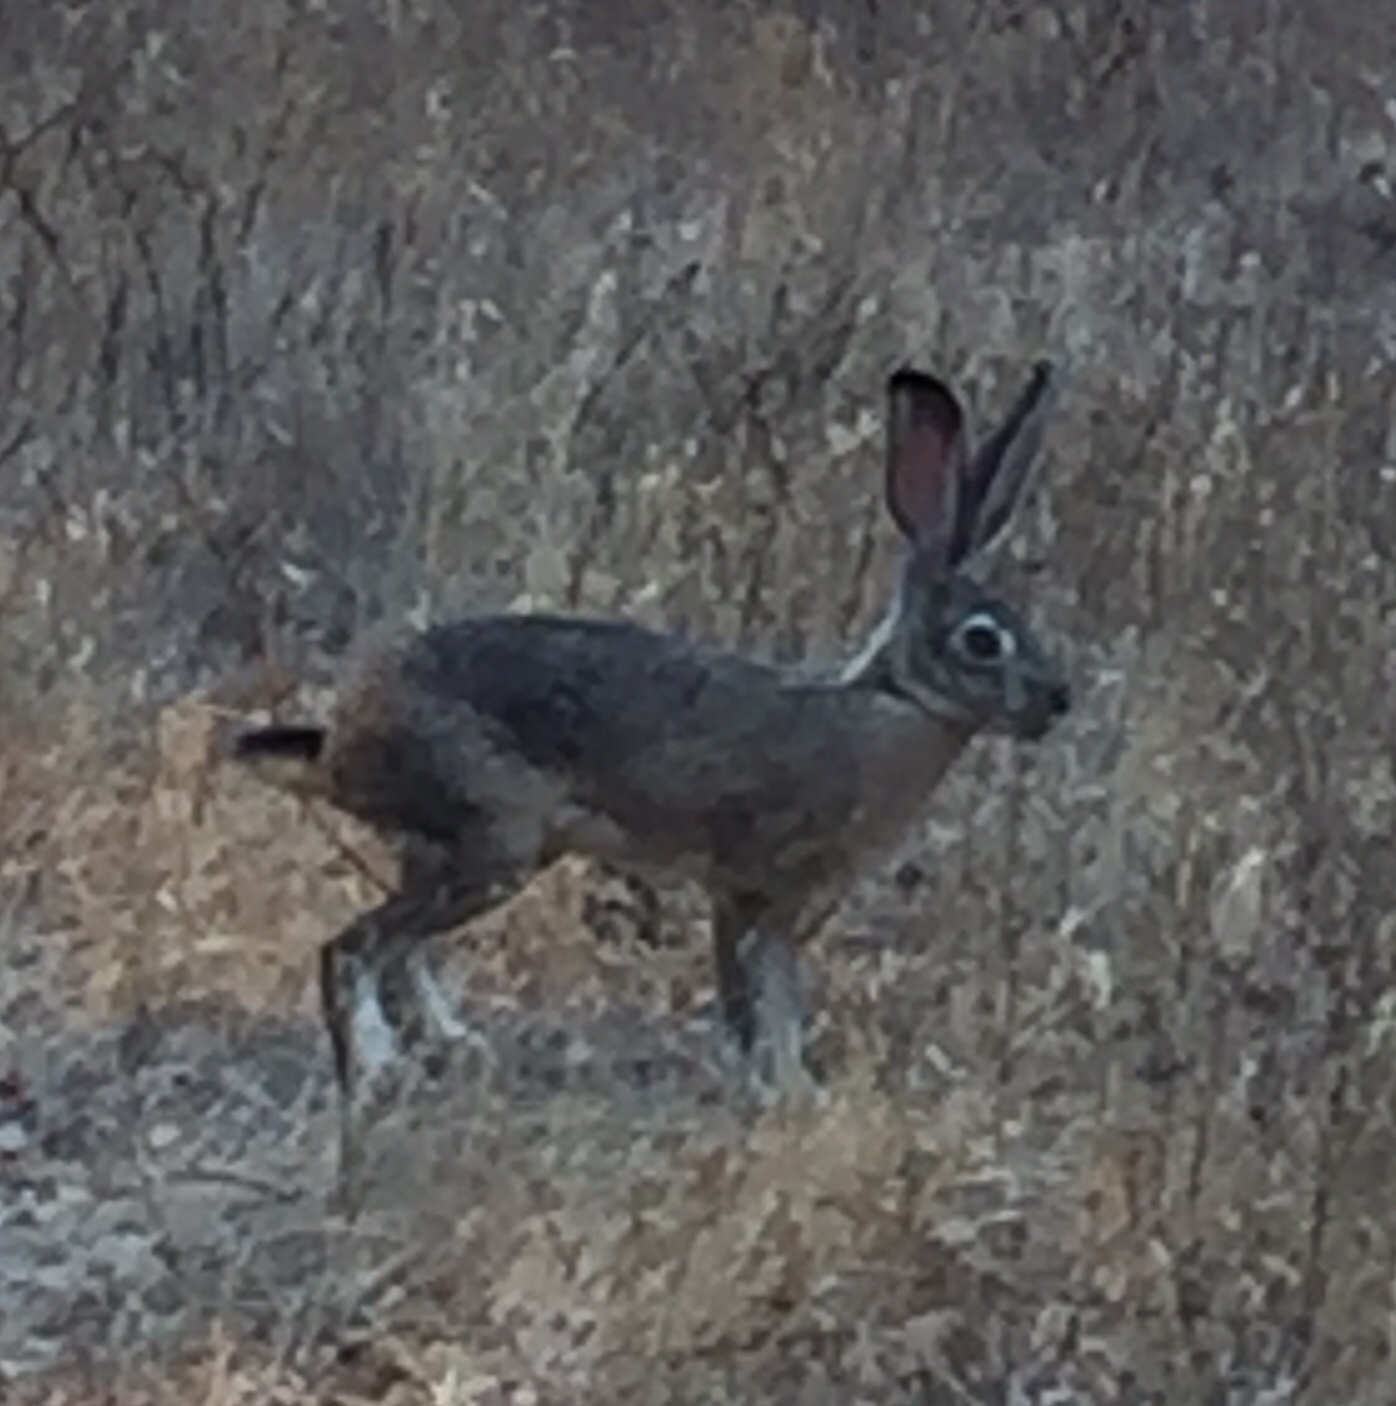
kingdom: Animalia
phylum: Chordata
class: Mammalia
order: Lagomorpha
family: Leporidae
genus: Lepus
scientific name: Lepus californicus
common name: Black-tailed jackrabbit
